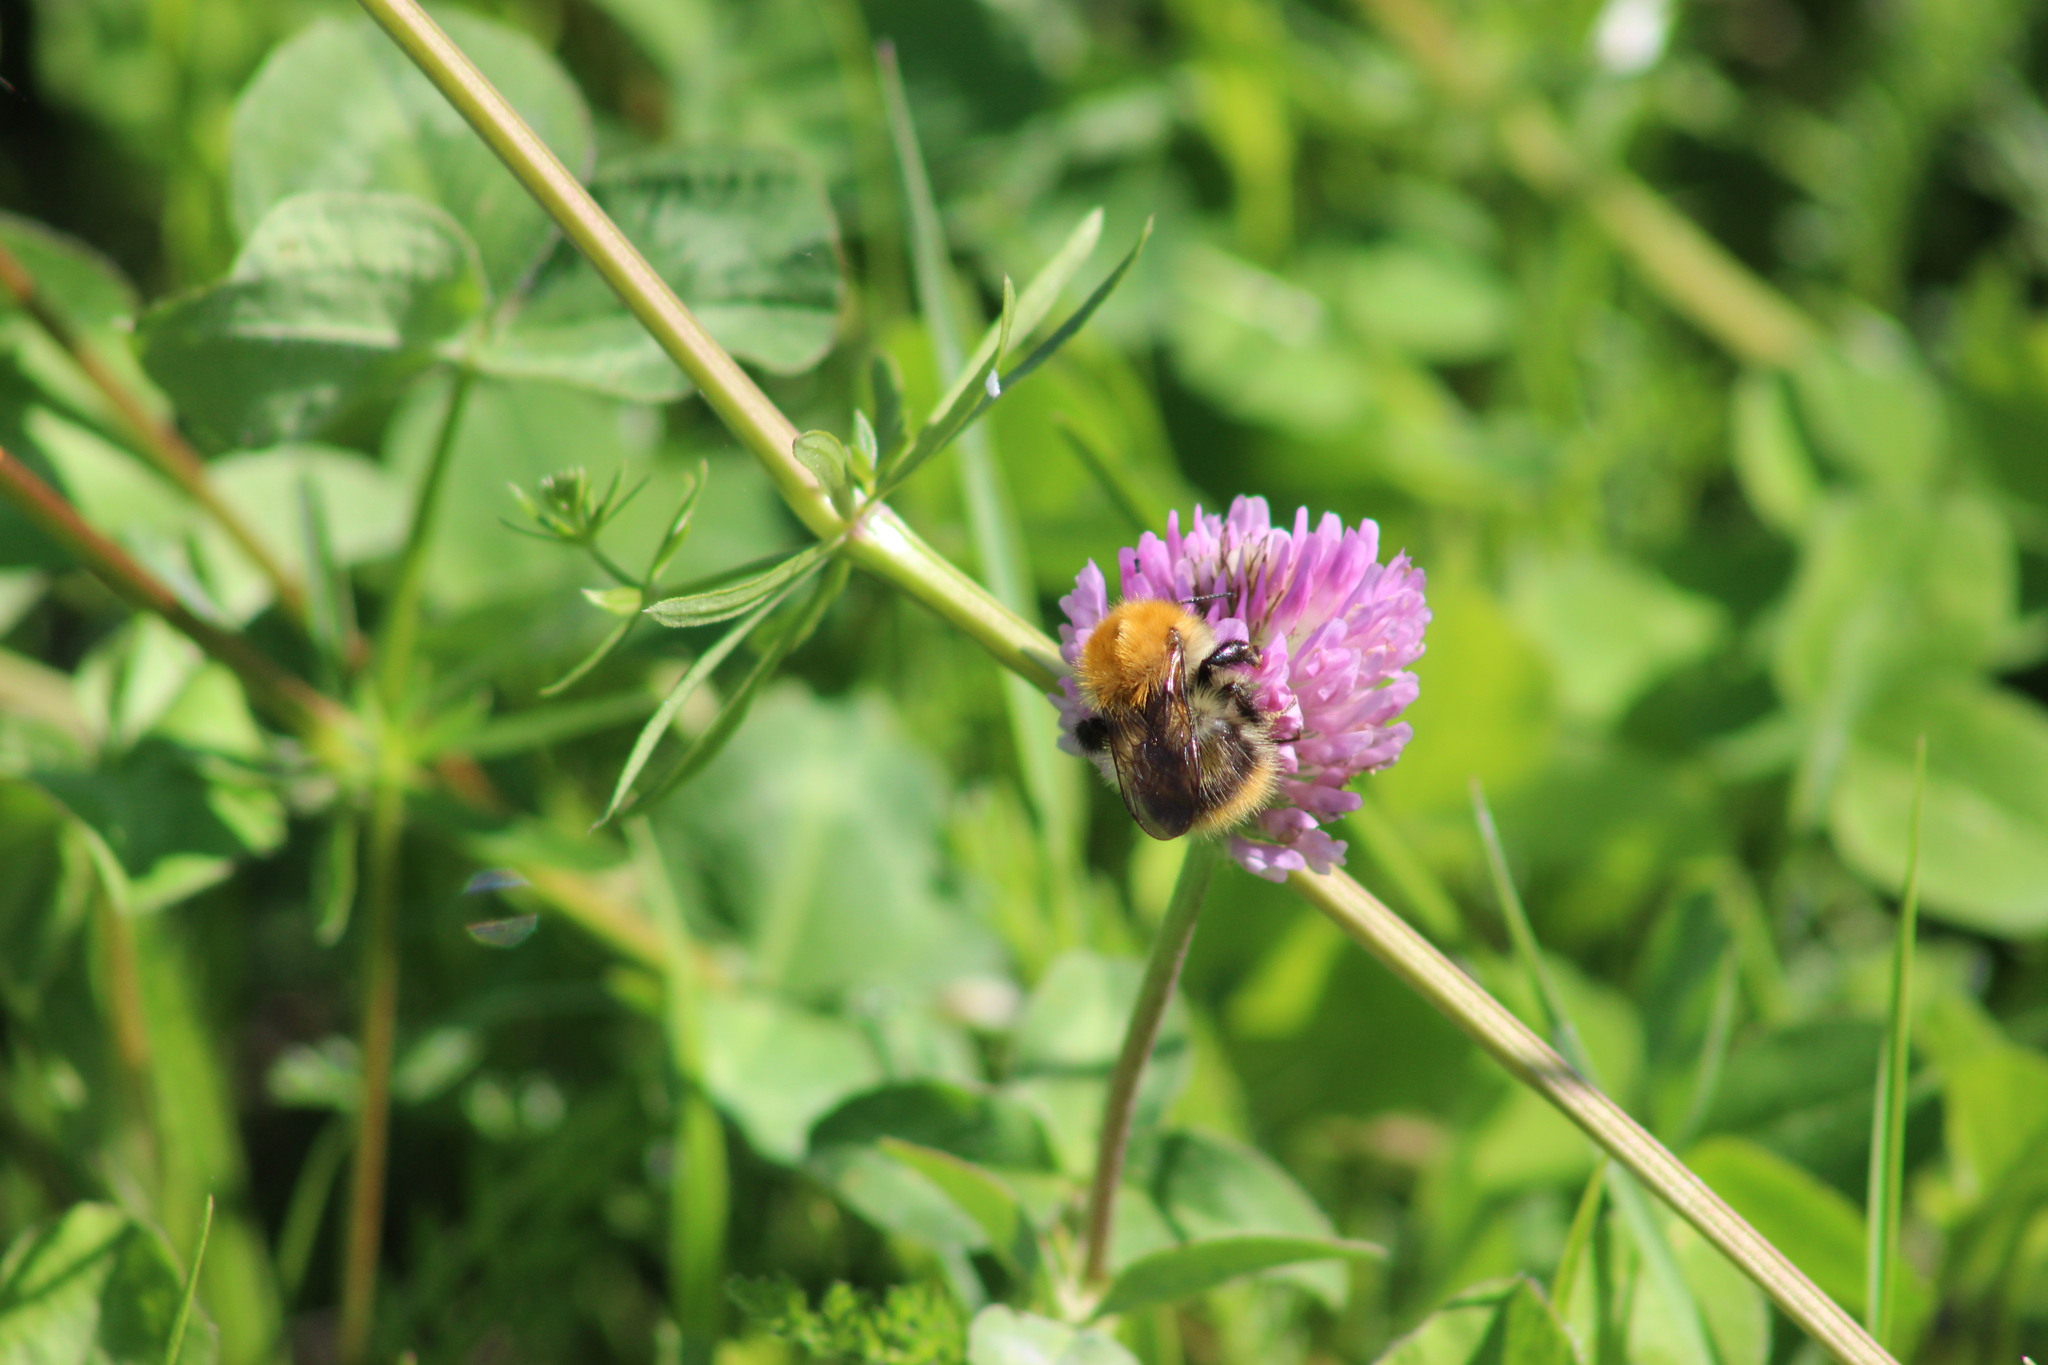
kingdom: Animalia
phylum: Arthropoda
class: Insecta
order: Hymenoptera
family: Apidae
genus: Bombus
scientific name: Bombus pascuorum
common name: Common carder bee
